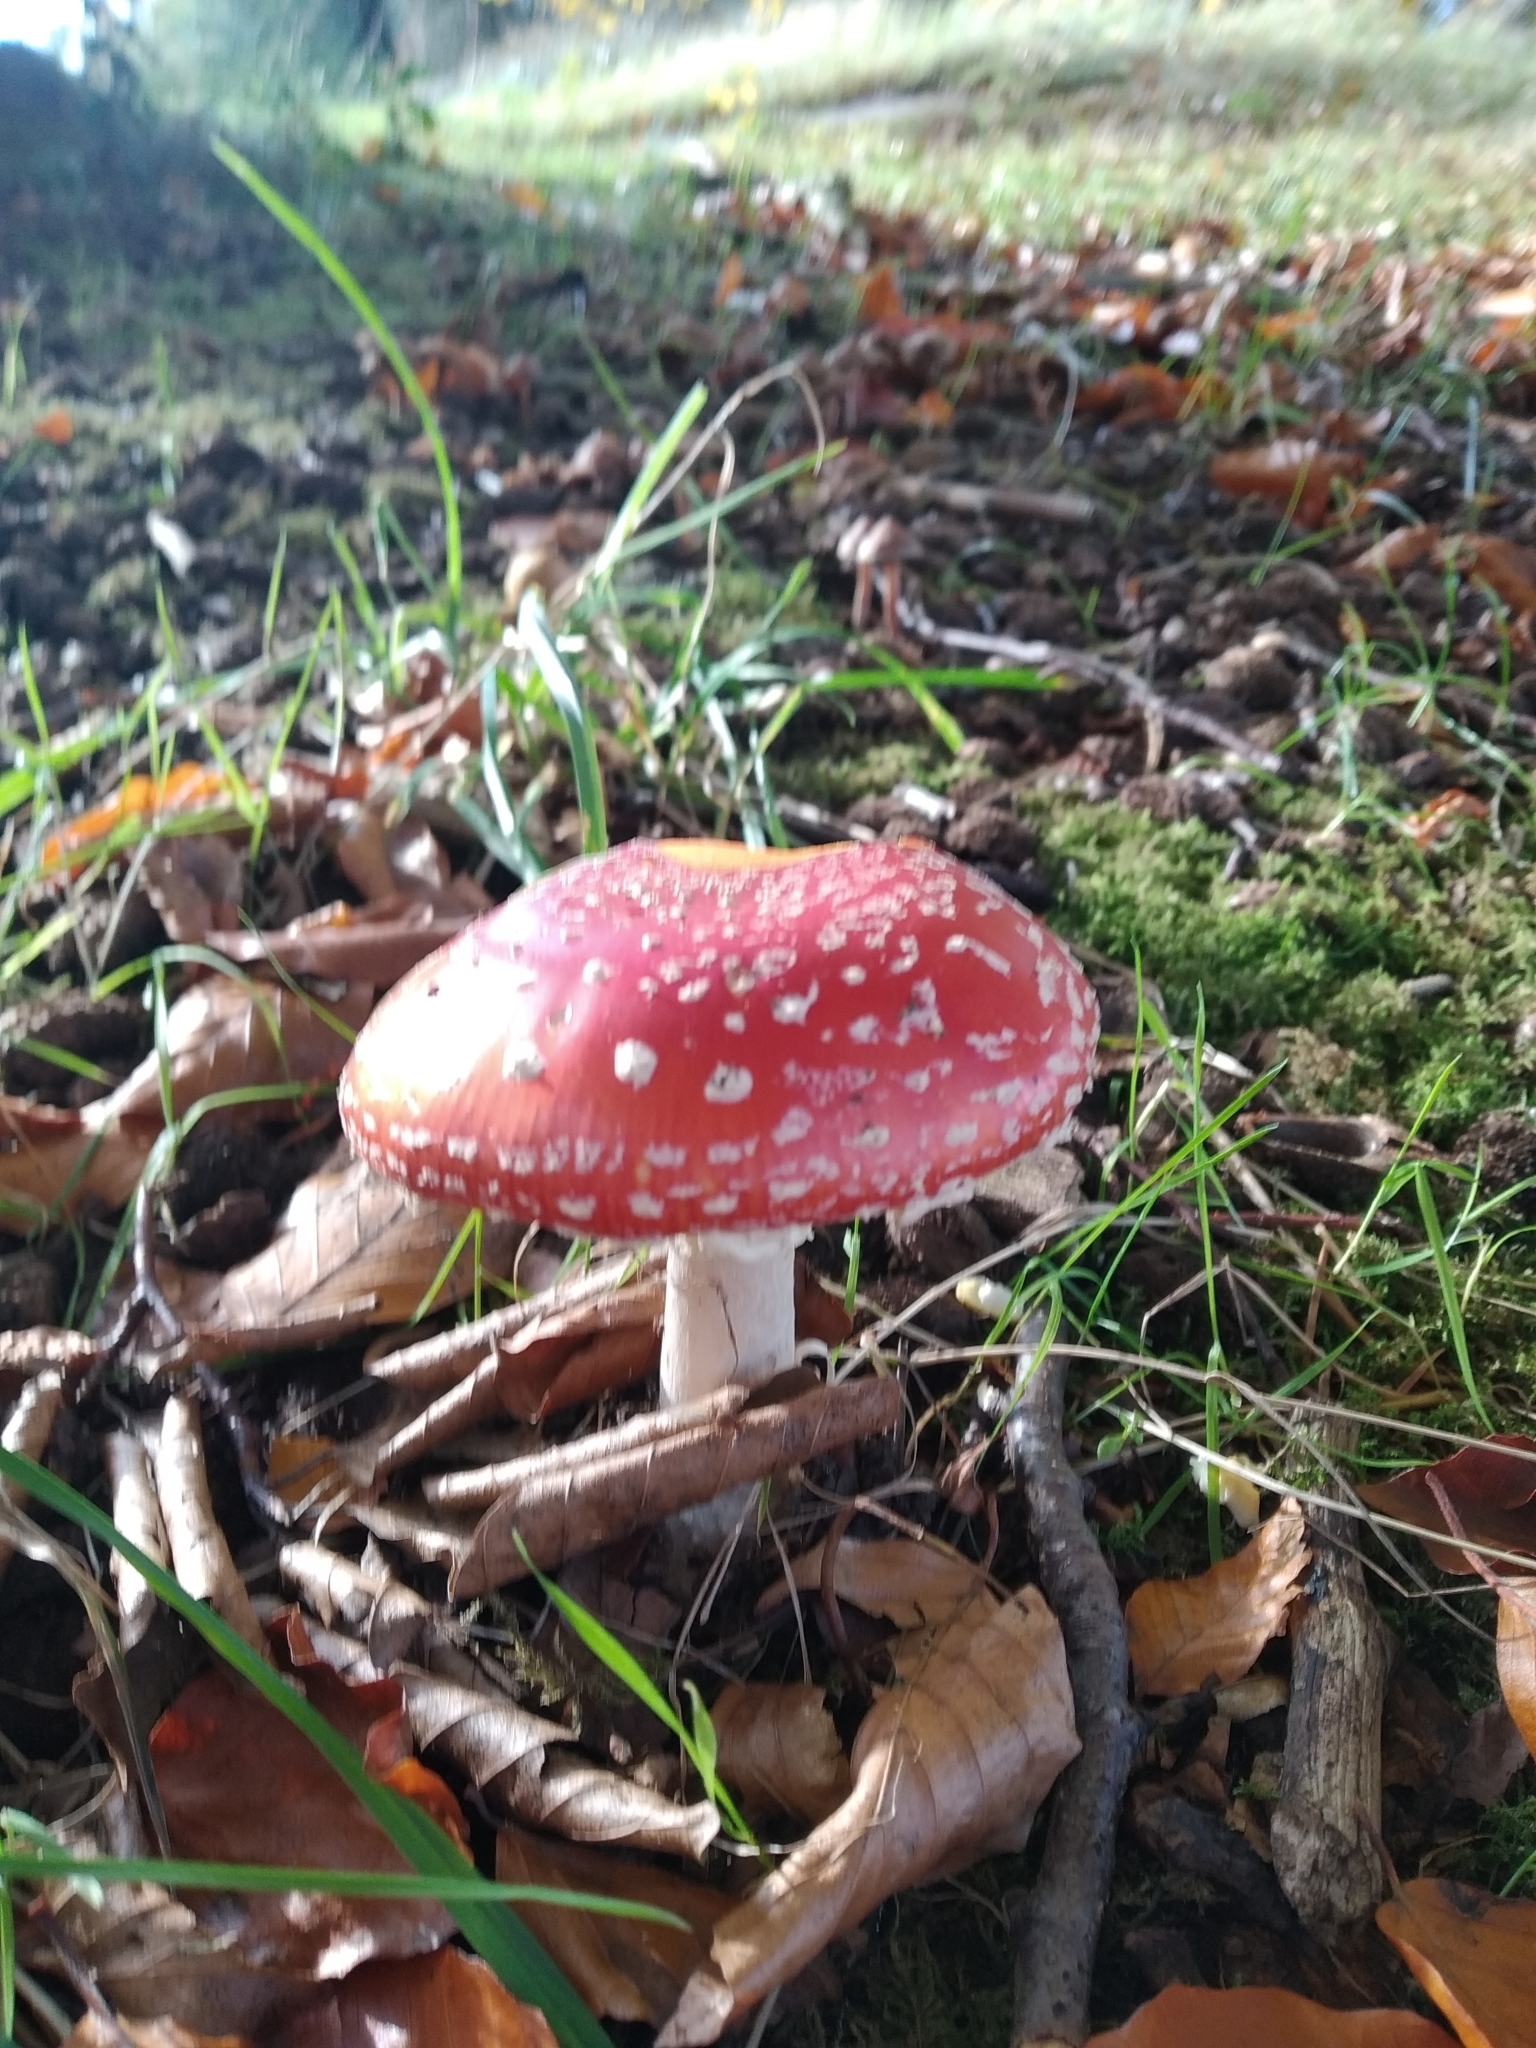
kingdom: Fungi
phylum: Basidiomycota
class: Agaricomycetes
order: Agaricales
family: Amanitaceae
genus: Amanita
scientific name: Amanita muscaria
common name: Fly agaric
